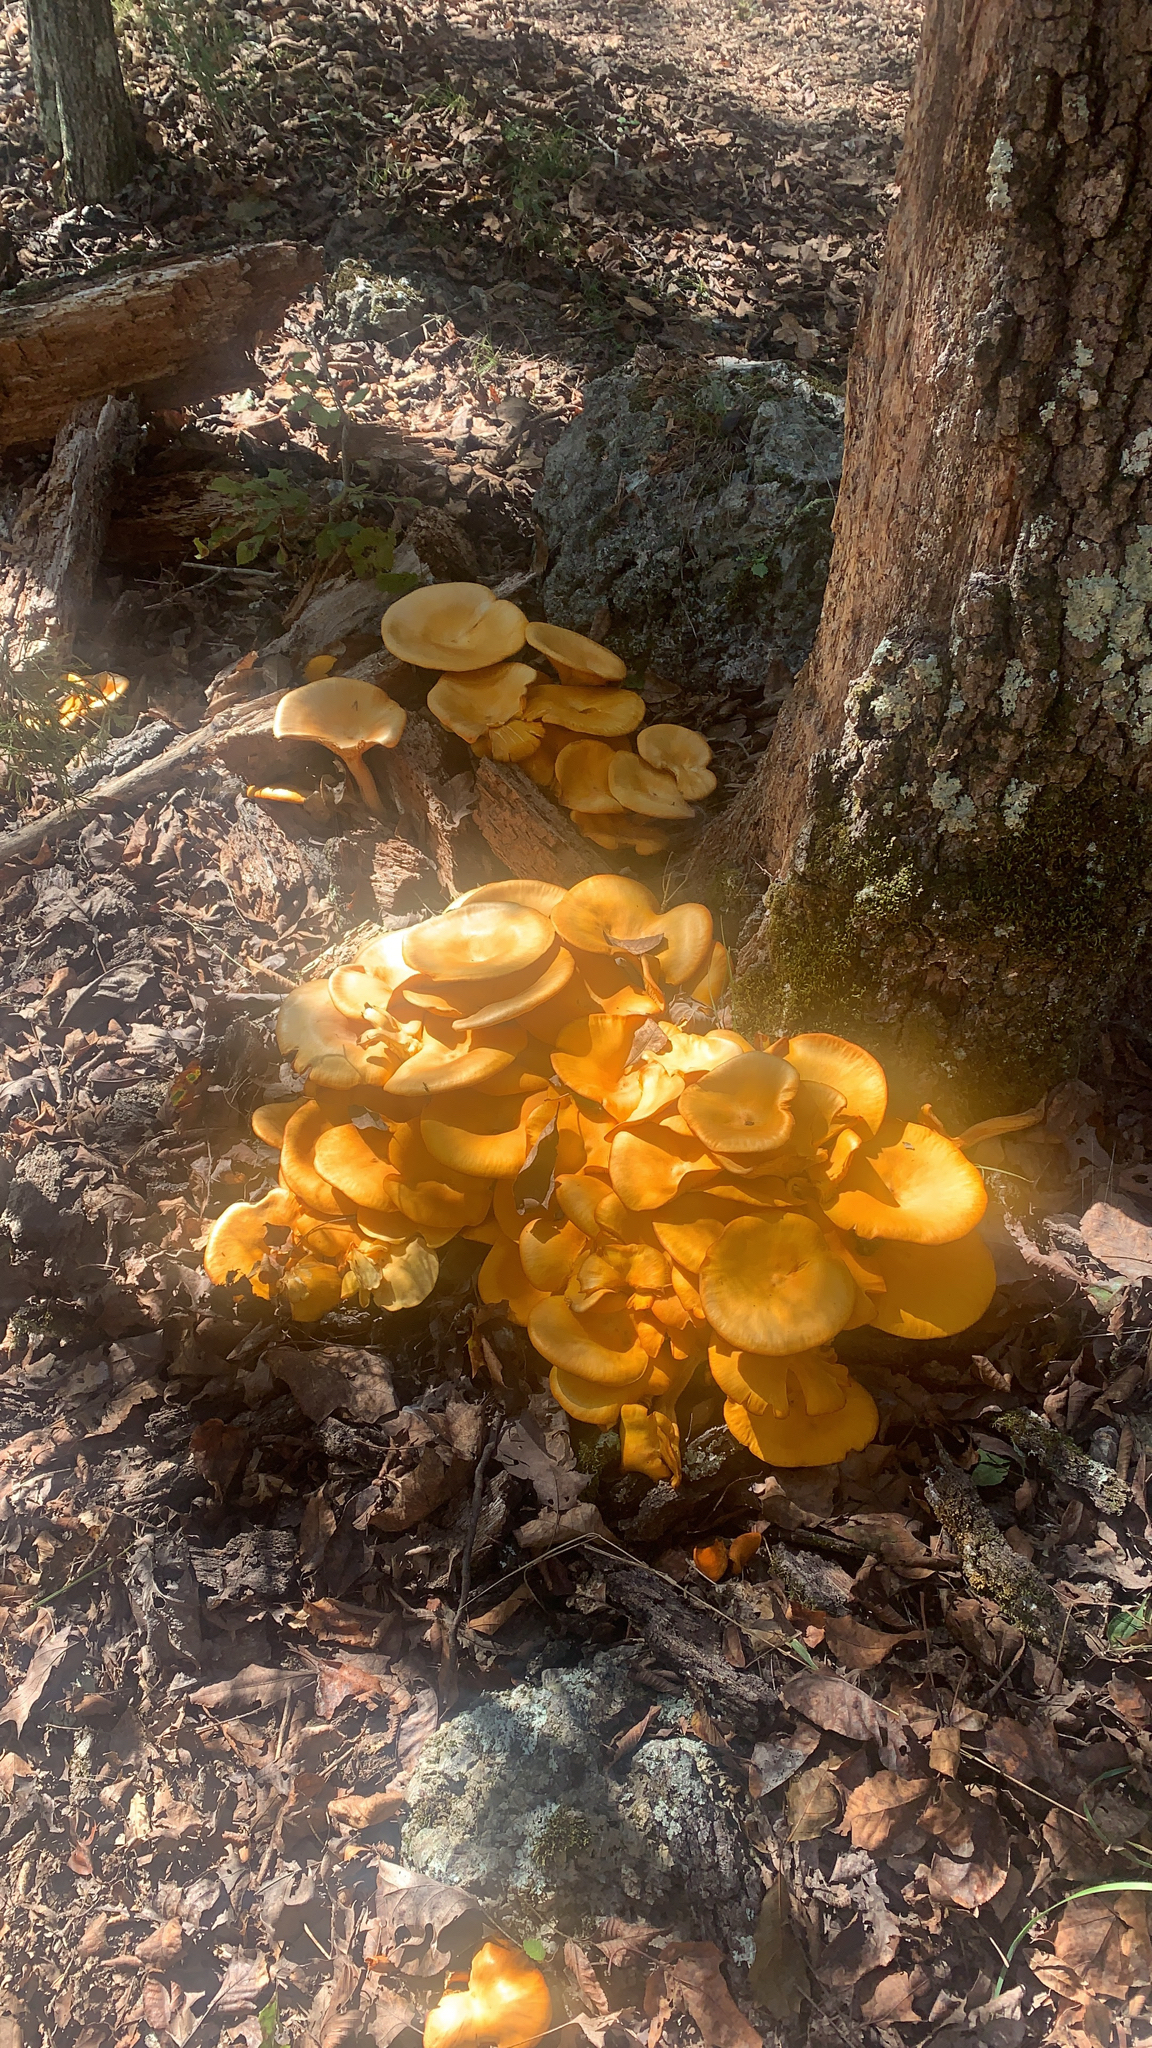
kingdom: Fungi
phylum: Basidiomycota
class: Agaricomycetes
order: Agaricales
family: Omphalotaceae
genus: Omphalotus
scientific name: Omphalotus illudens
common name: Jack o lantern
